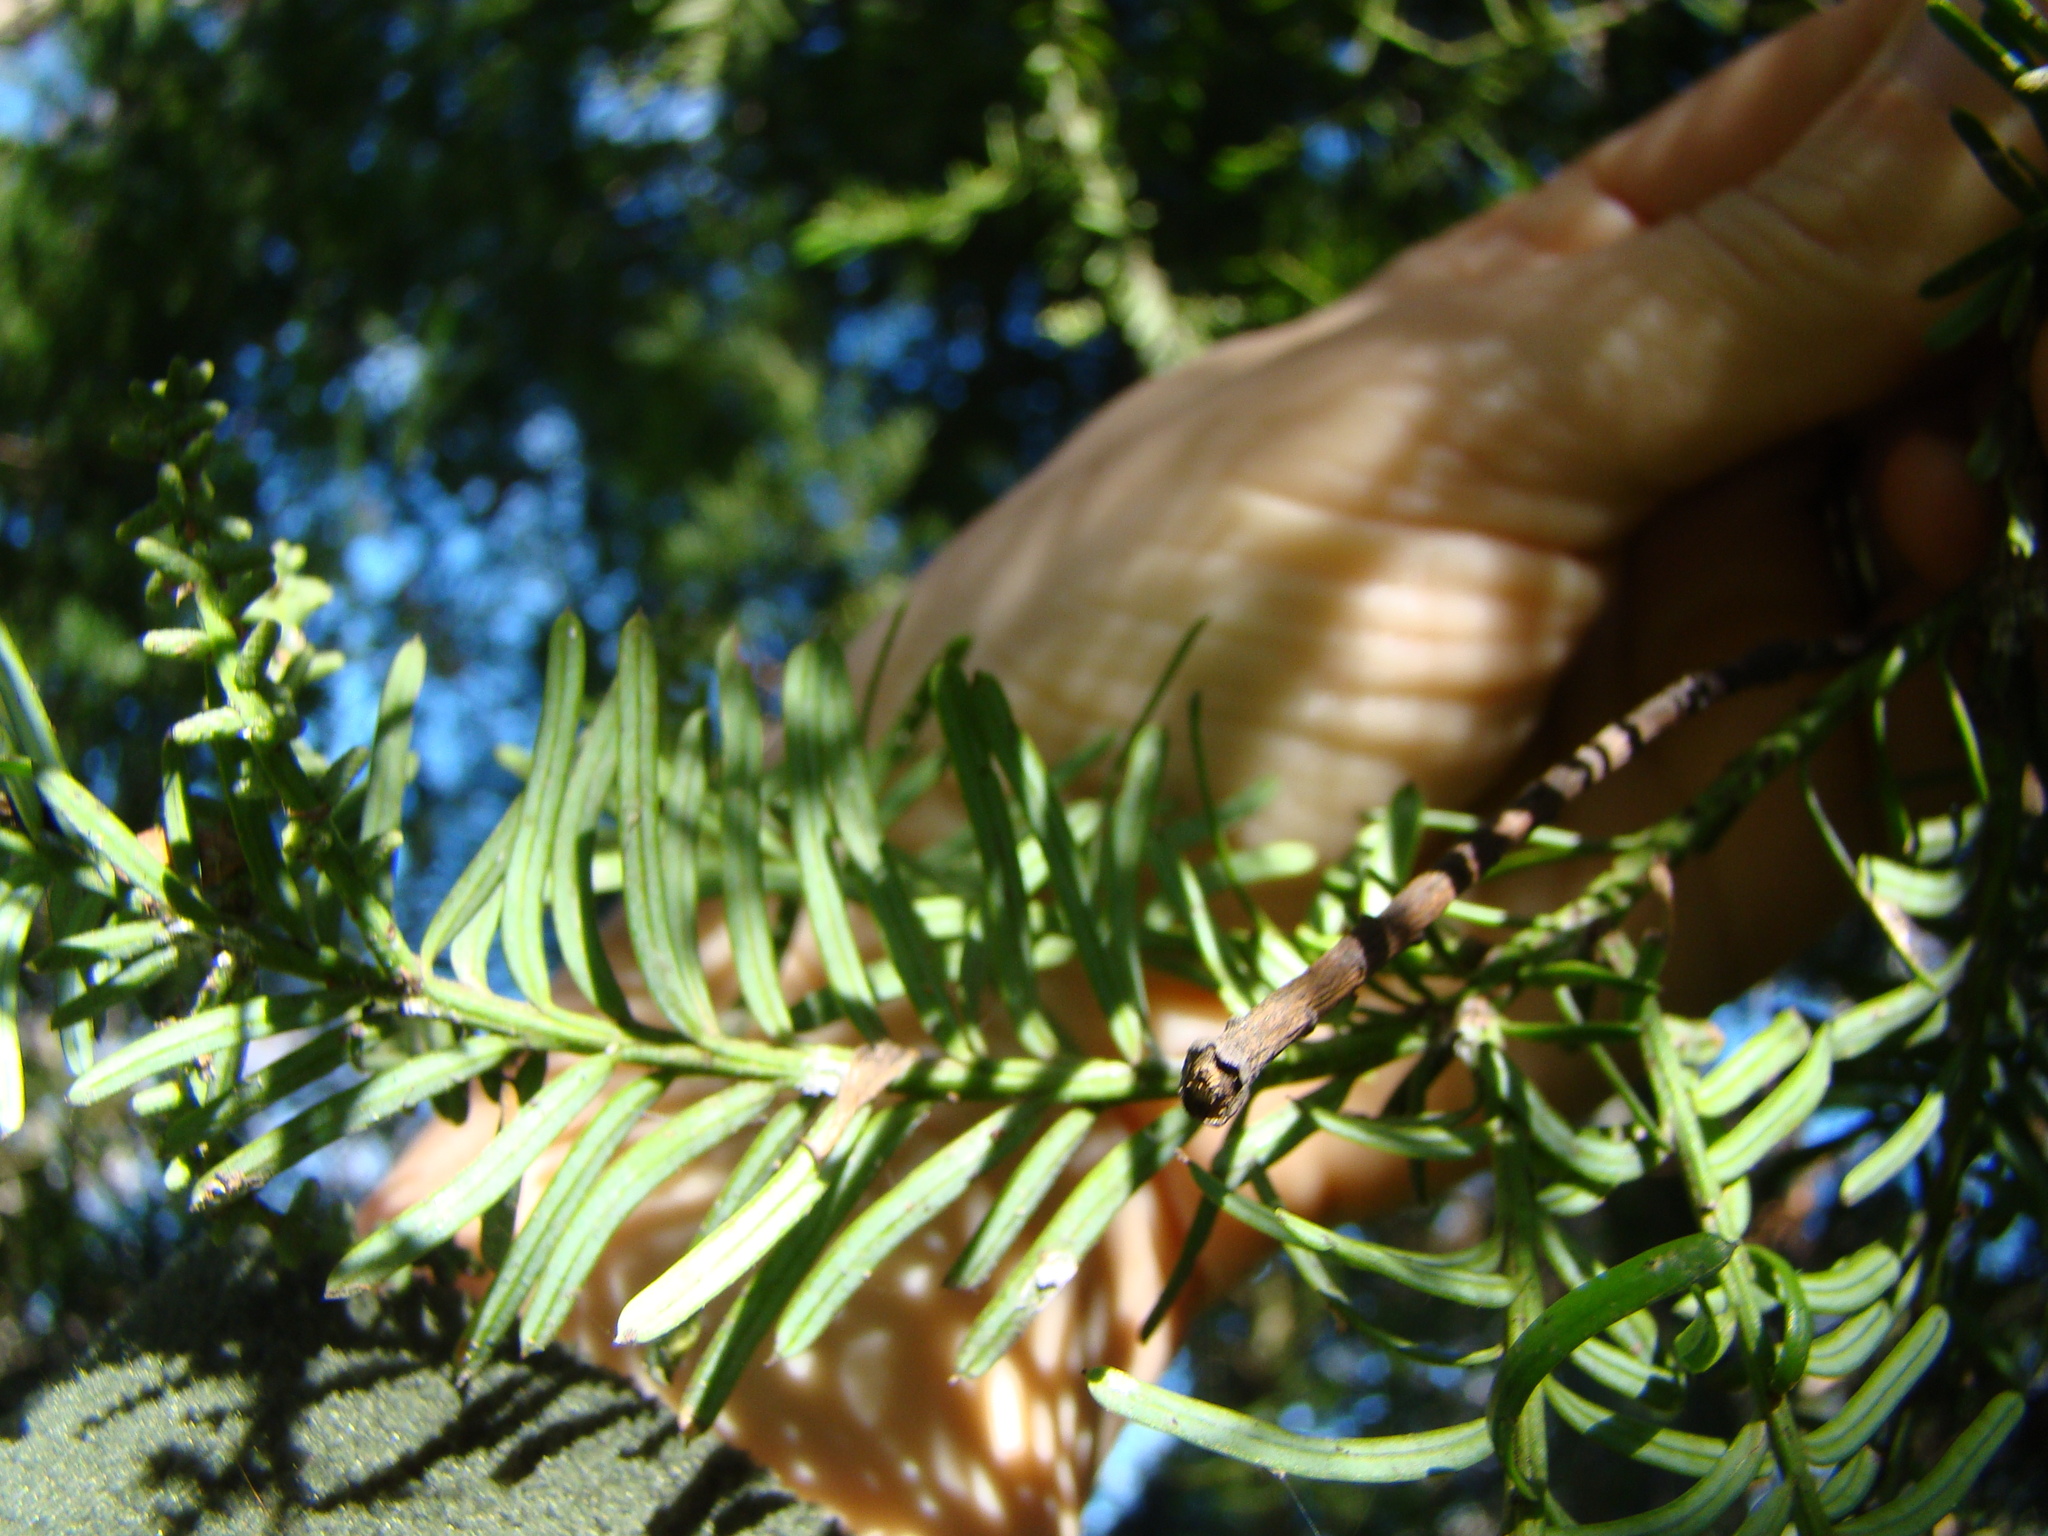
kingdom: Plantae
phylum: Tracheophyta
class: Pinopsida
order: Pinales
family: Podocarpaceae
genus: Prumnopitys
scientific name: Prumnopitys taxifolia
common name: Matai
